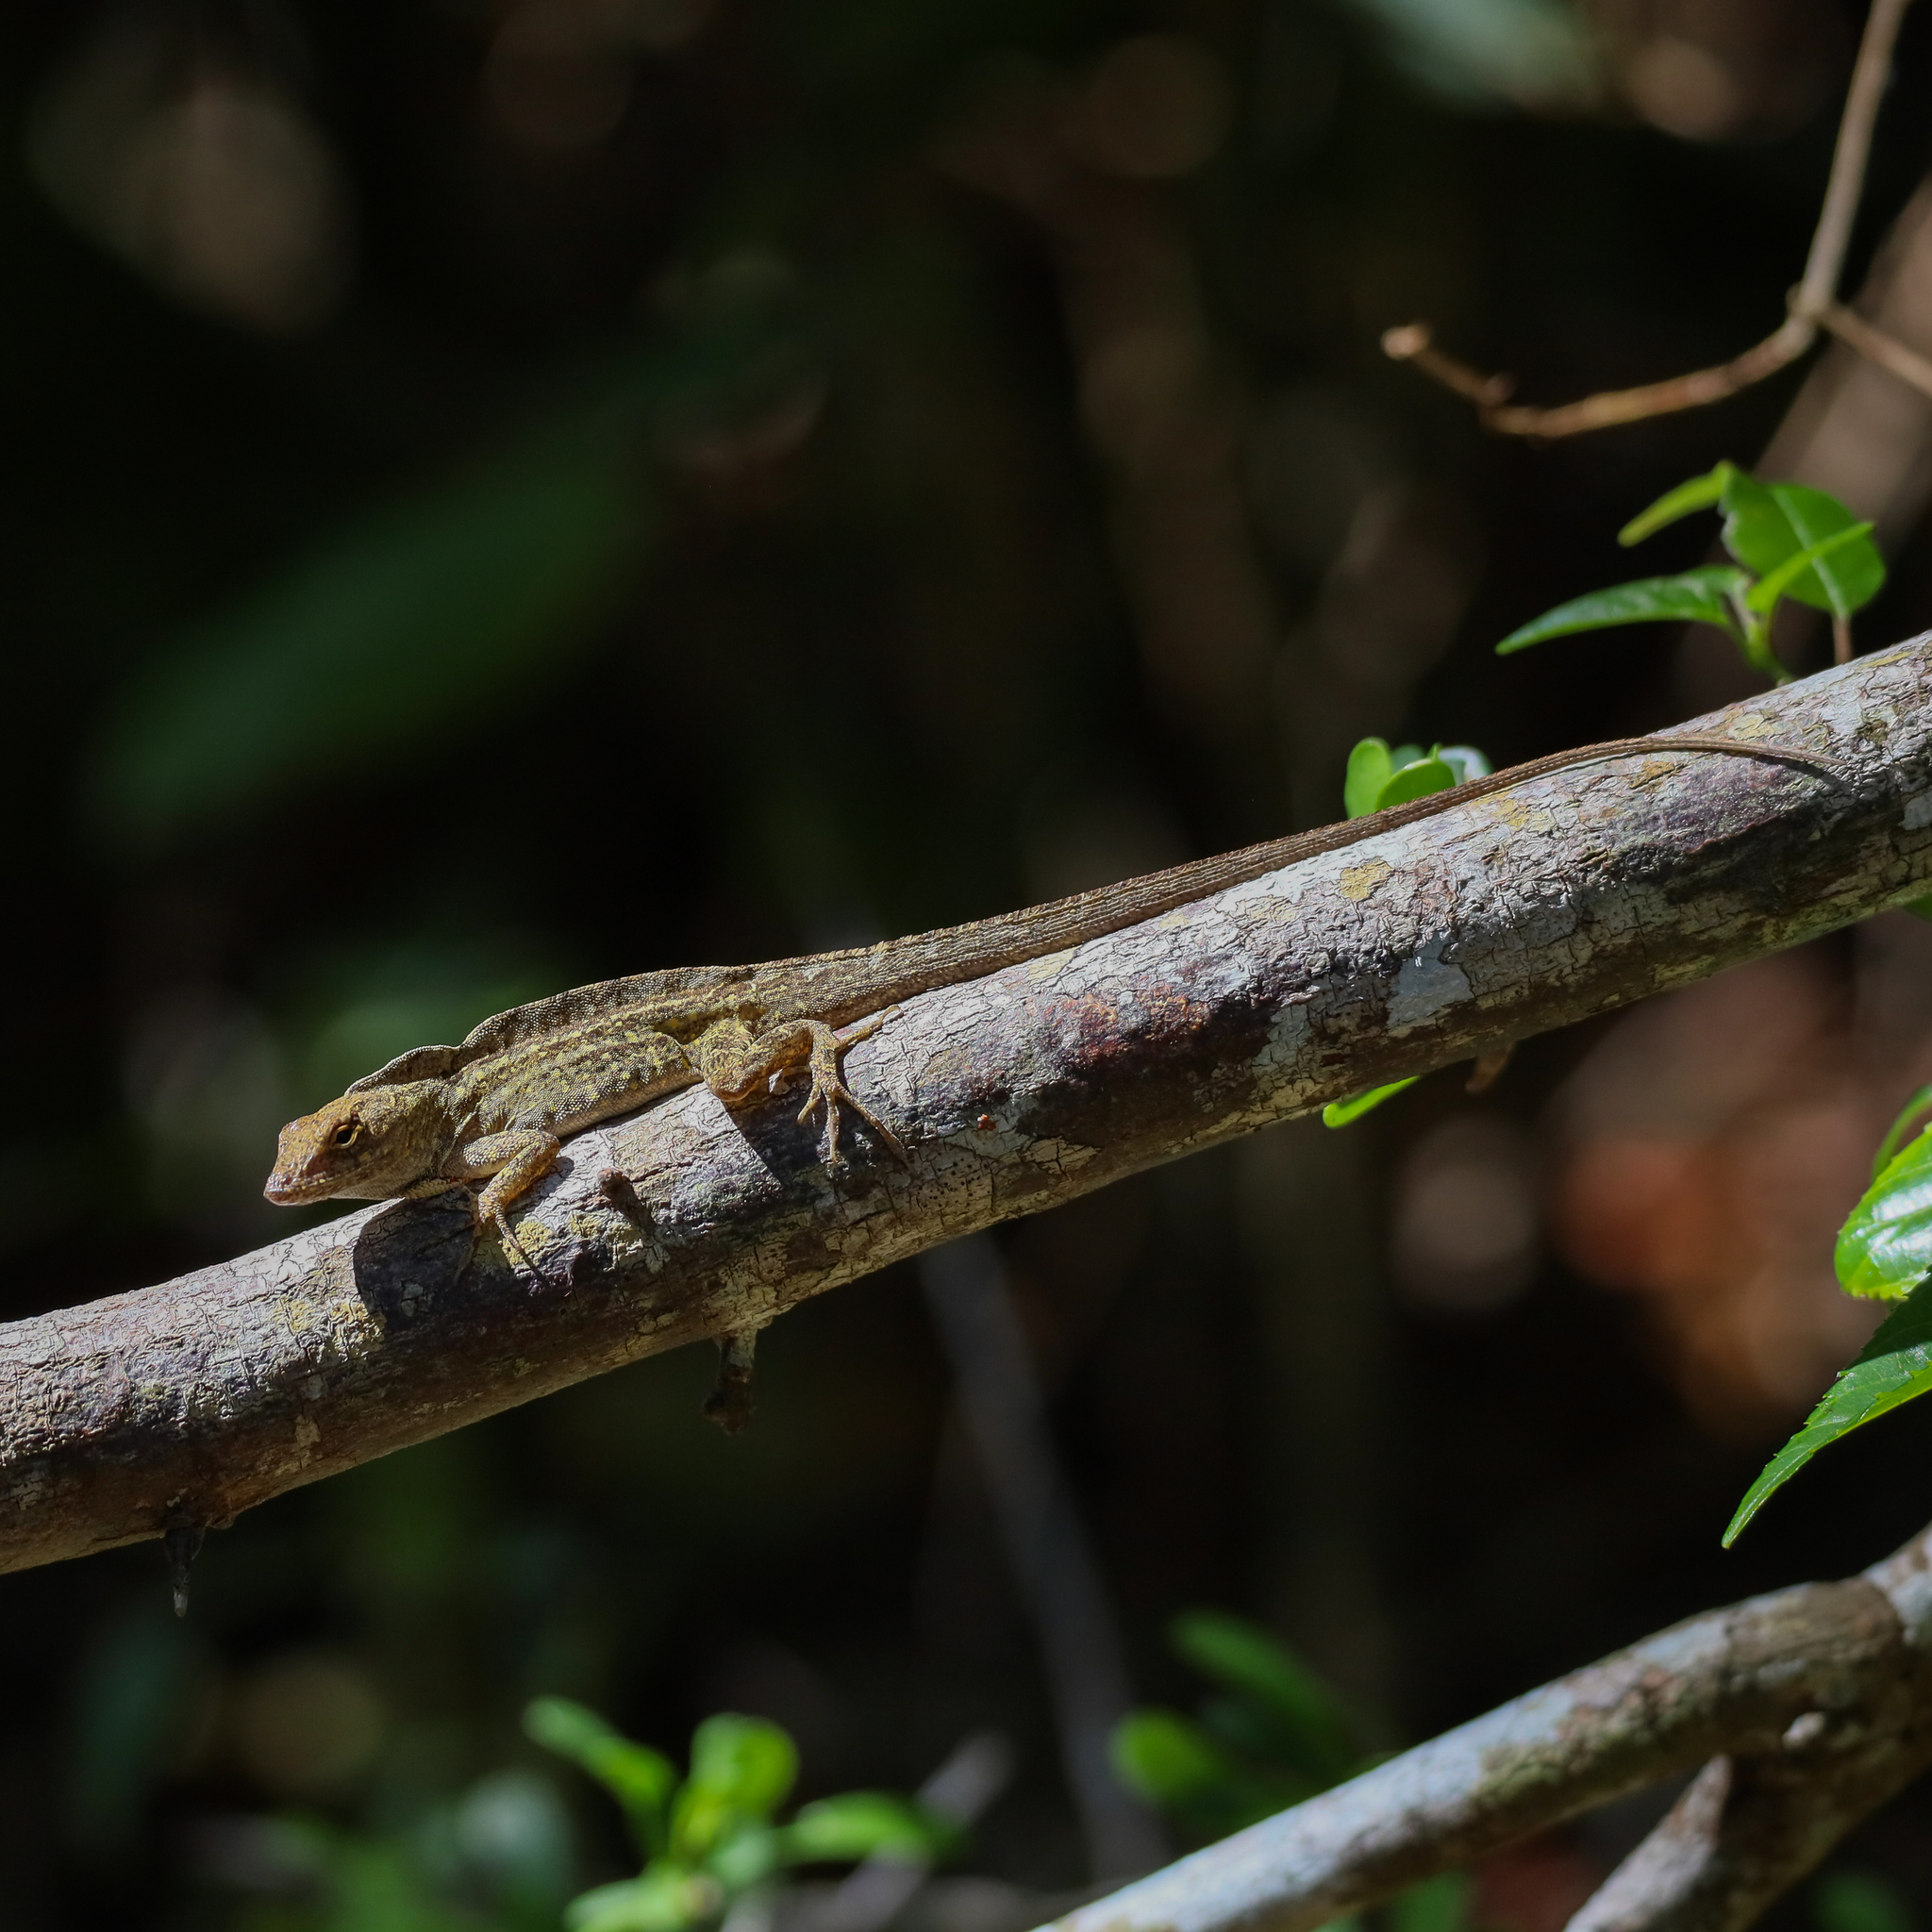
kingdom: Animalia
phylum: Chordata
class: Squamata
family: Dactyloidae
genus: Anolis
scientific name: Anolis sagrei
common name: Brown anole
